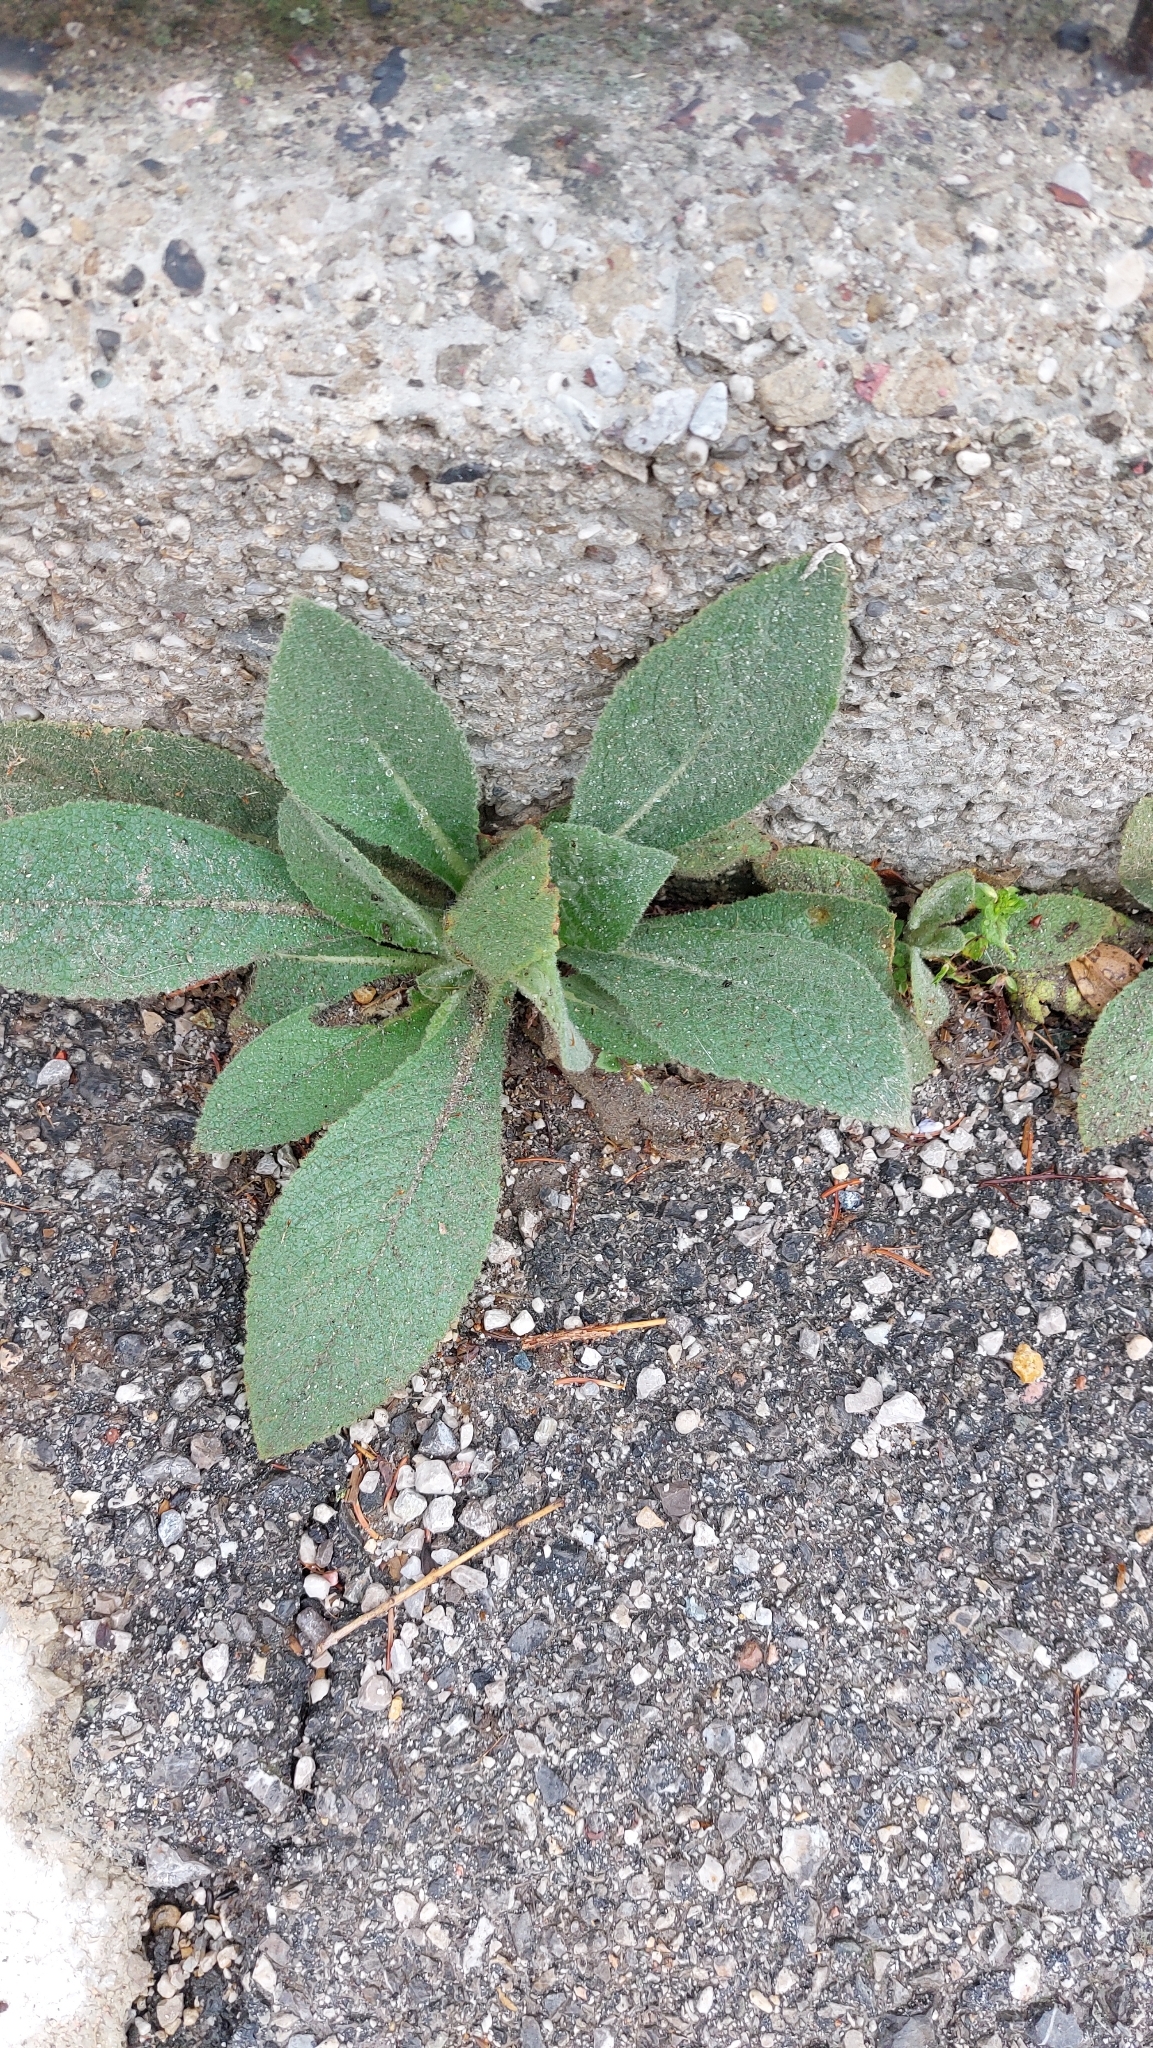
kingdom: Plantae
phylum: Tracheophyta
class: Magnoliopsida
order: Lamiales
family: Scrophulariaceae
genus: Verbascum
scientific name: Verbascum
